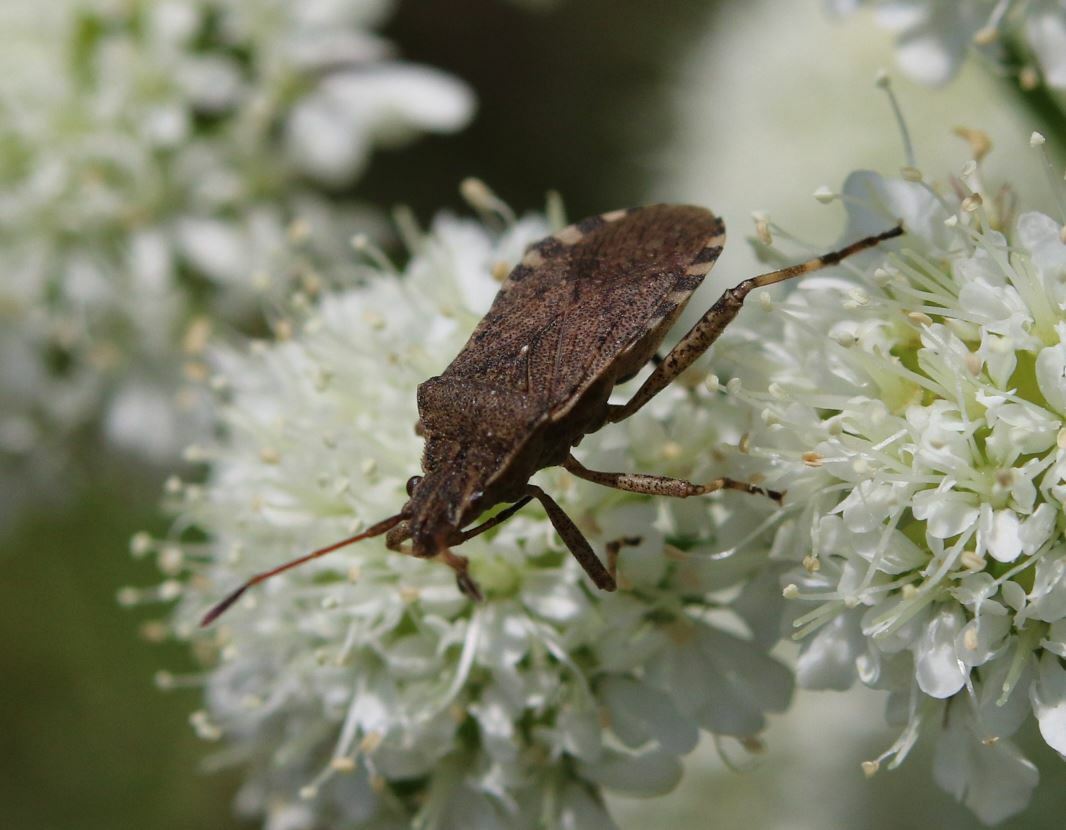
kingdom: Animalia
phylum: Arthropoda
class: Insecta
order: Hemiptera
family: Coreidae
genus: Ceraleptus
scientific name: Ceraleptus gracilicornis
